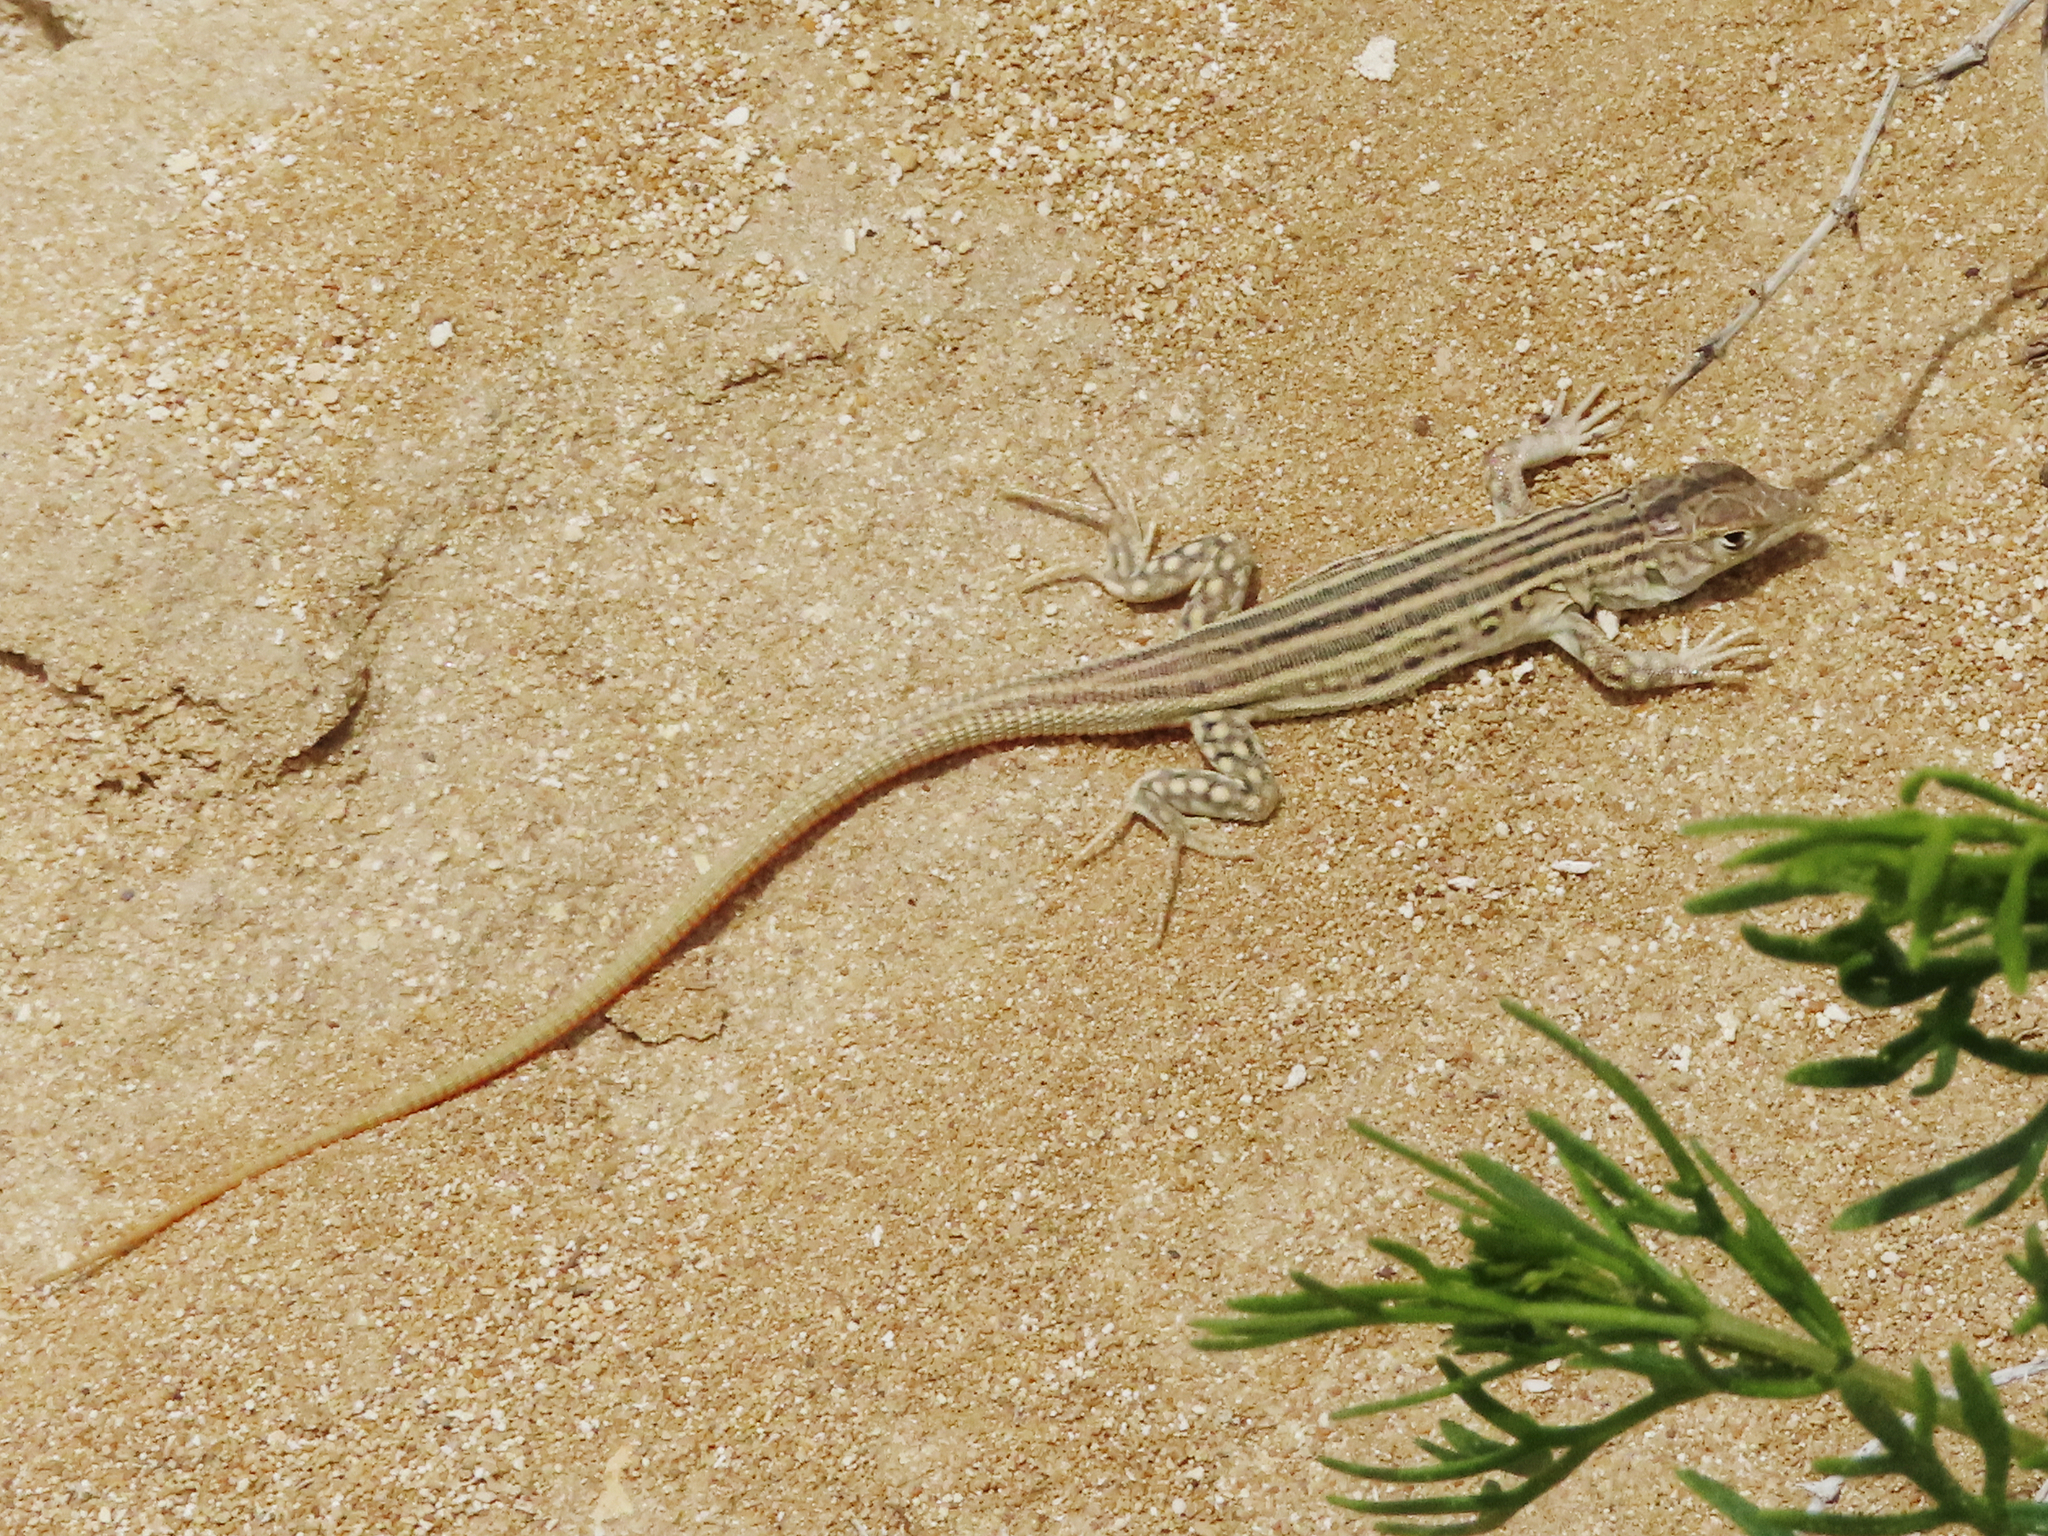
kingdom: Animalia
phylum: Chordata
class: Squamata
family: Lacertidae
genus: Eremias
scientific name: Eremias velox
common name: Central asian racerunner
